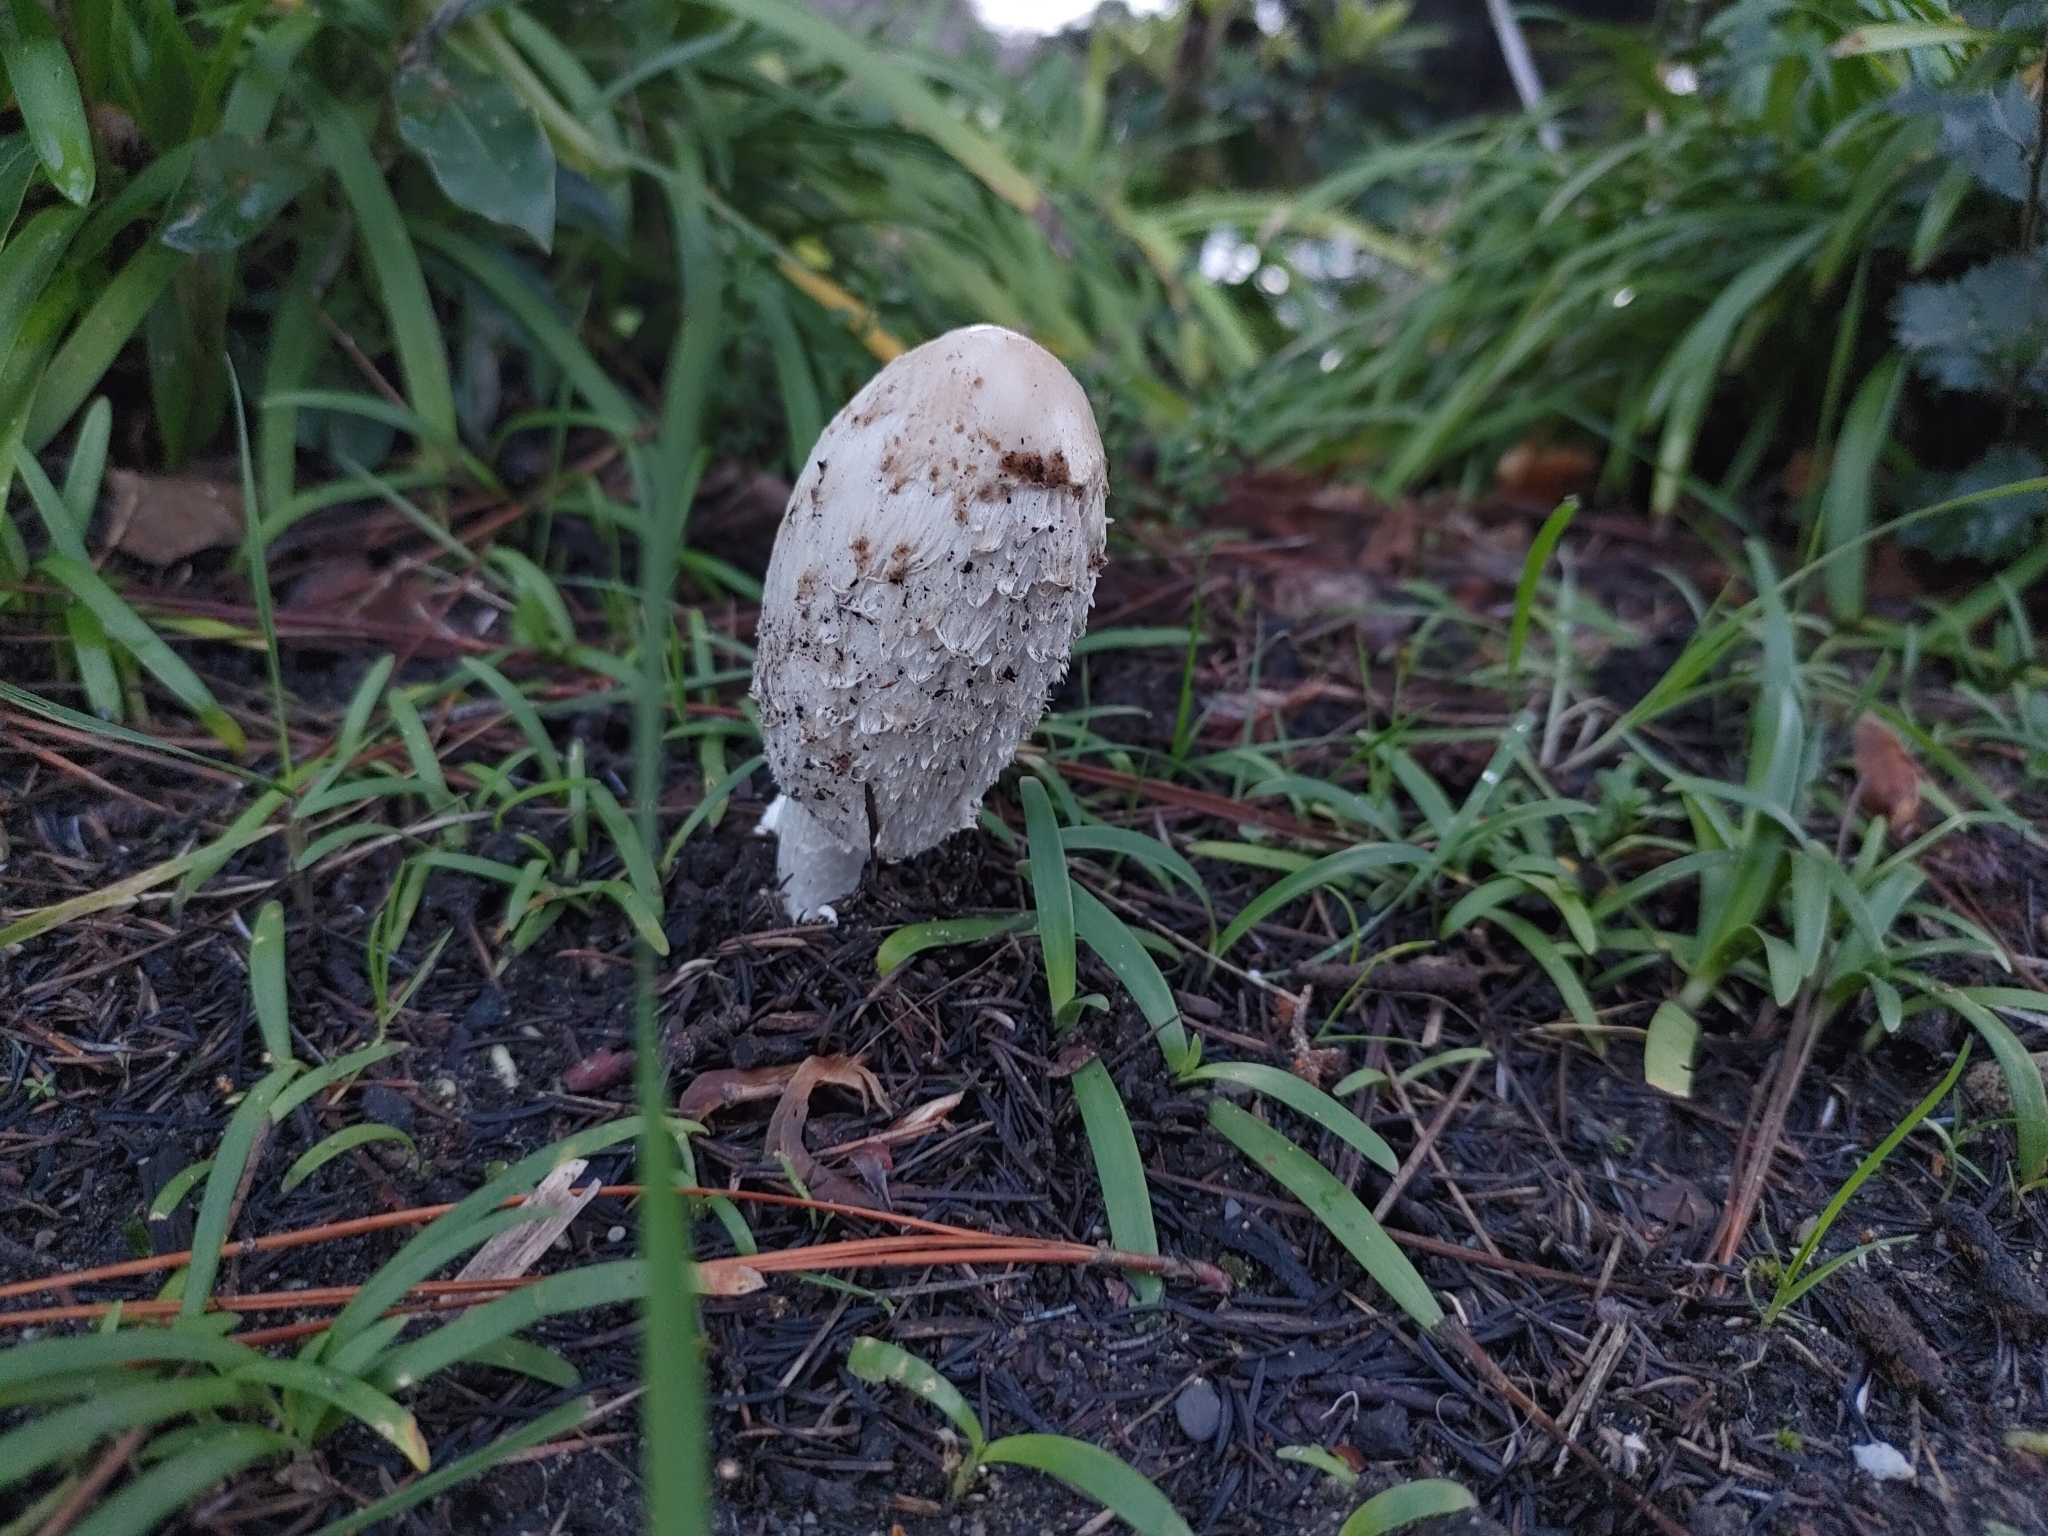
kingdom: Fungi
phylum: Basidiomycota
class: Agaricomycetes
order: Agaricales
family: Agaricaceae
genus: Coprinus
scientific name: Coprinus comatus
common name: Lawyer's wig
